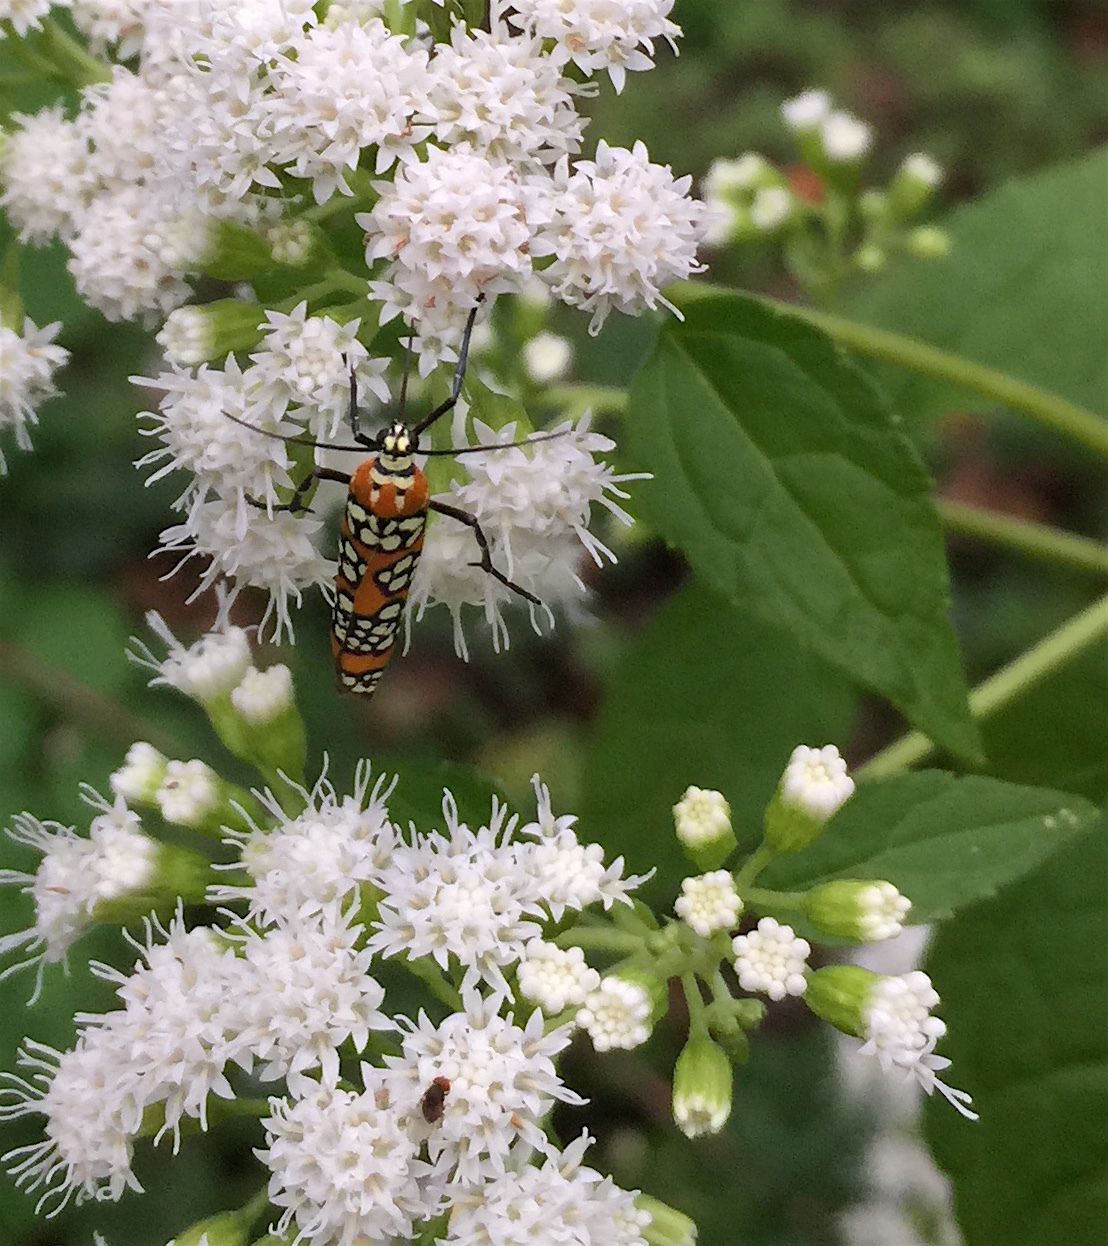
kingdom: Animalia
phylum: Arthropoda
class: Insecta
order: Lepidoptera
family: Attevidae
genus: Atteva
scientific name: Atteva punctella
